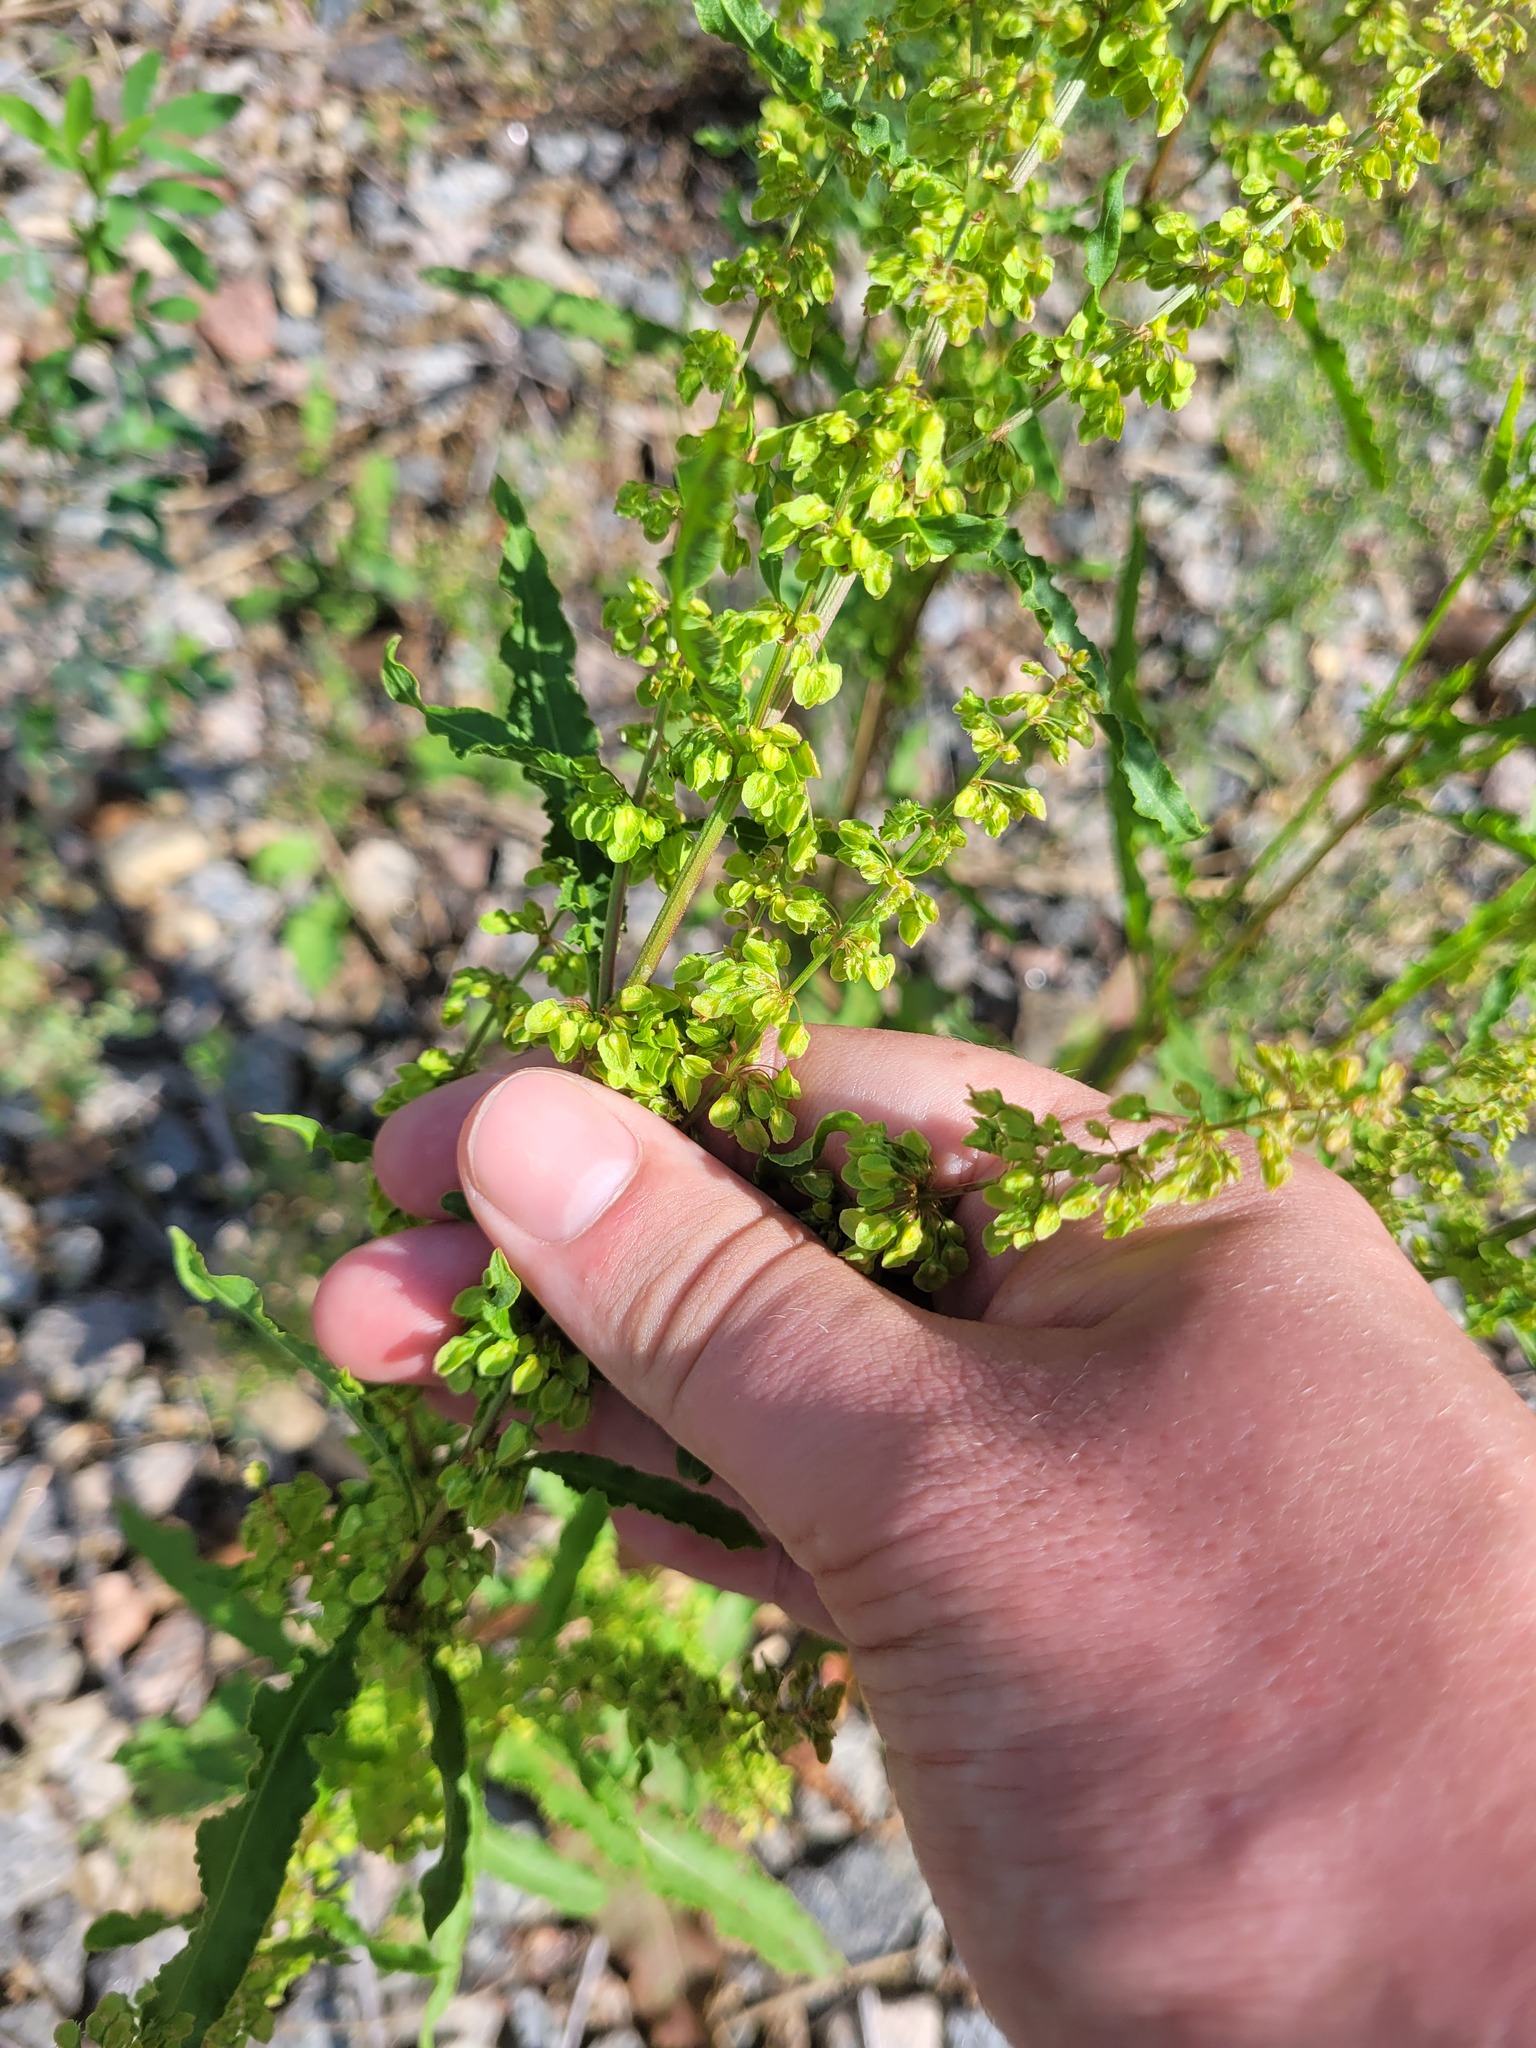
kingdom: Plantae
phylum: Tracheophyta
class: Magnoliopsida
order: Caryophyllales
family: Polygonaceae
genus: Rumex
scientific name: Rumex crispus
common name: Curled dock
